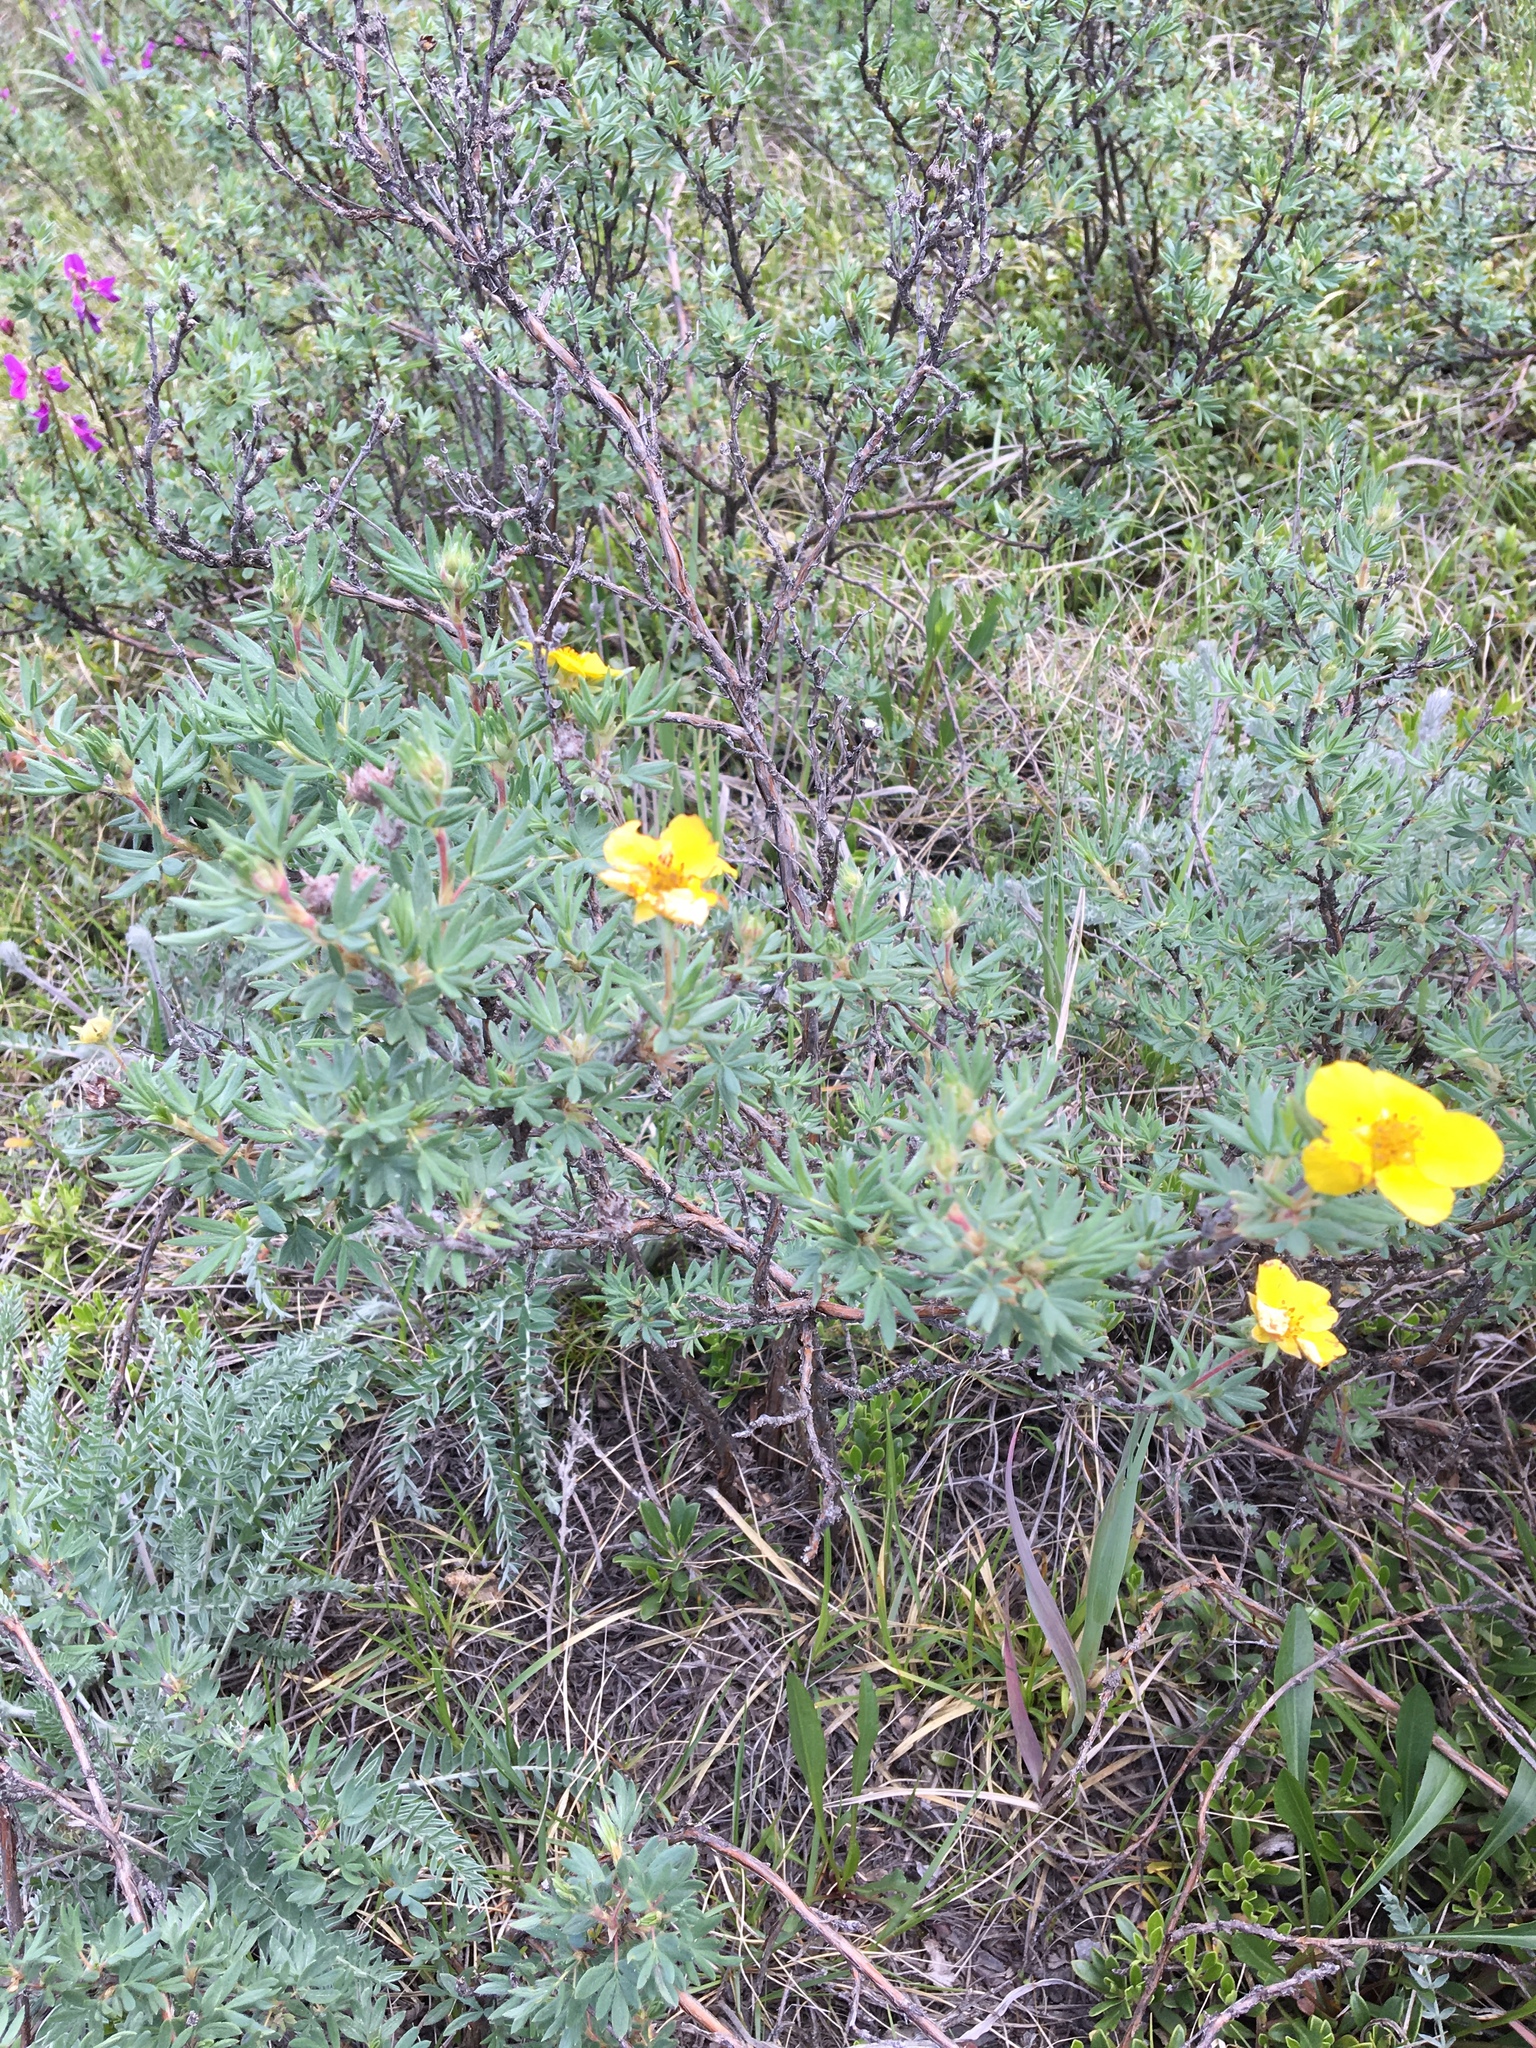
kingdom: Plantae
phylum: Tracheophyta
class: Magnoliopsida
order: Rosales
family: Rosaceae
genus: Dasiphora
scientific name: Dasiphora fruticosa
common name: Shrubby cinquefoil
